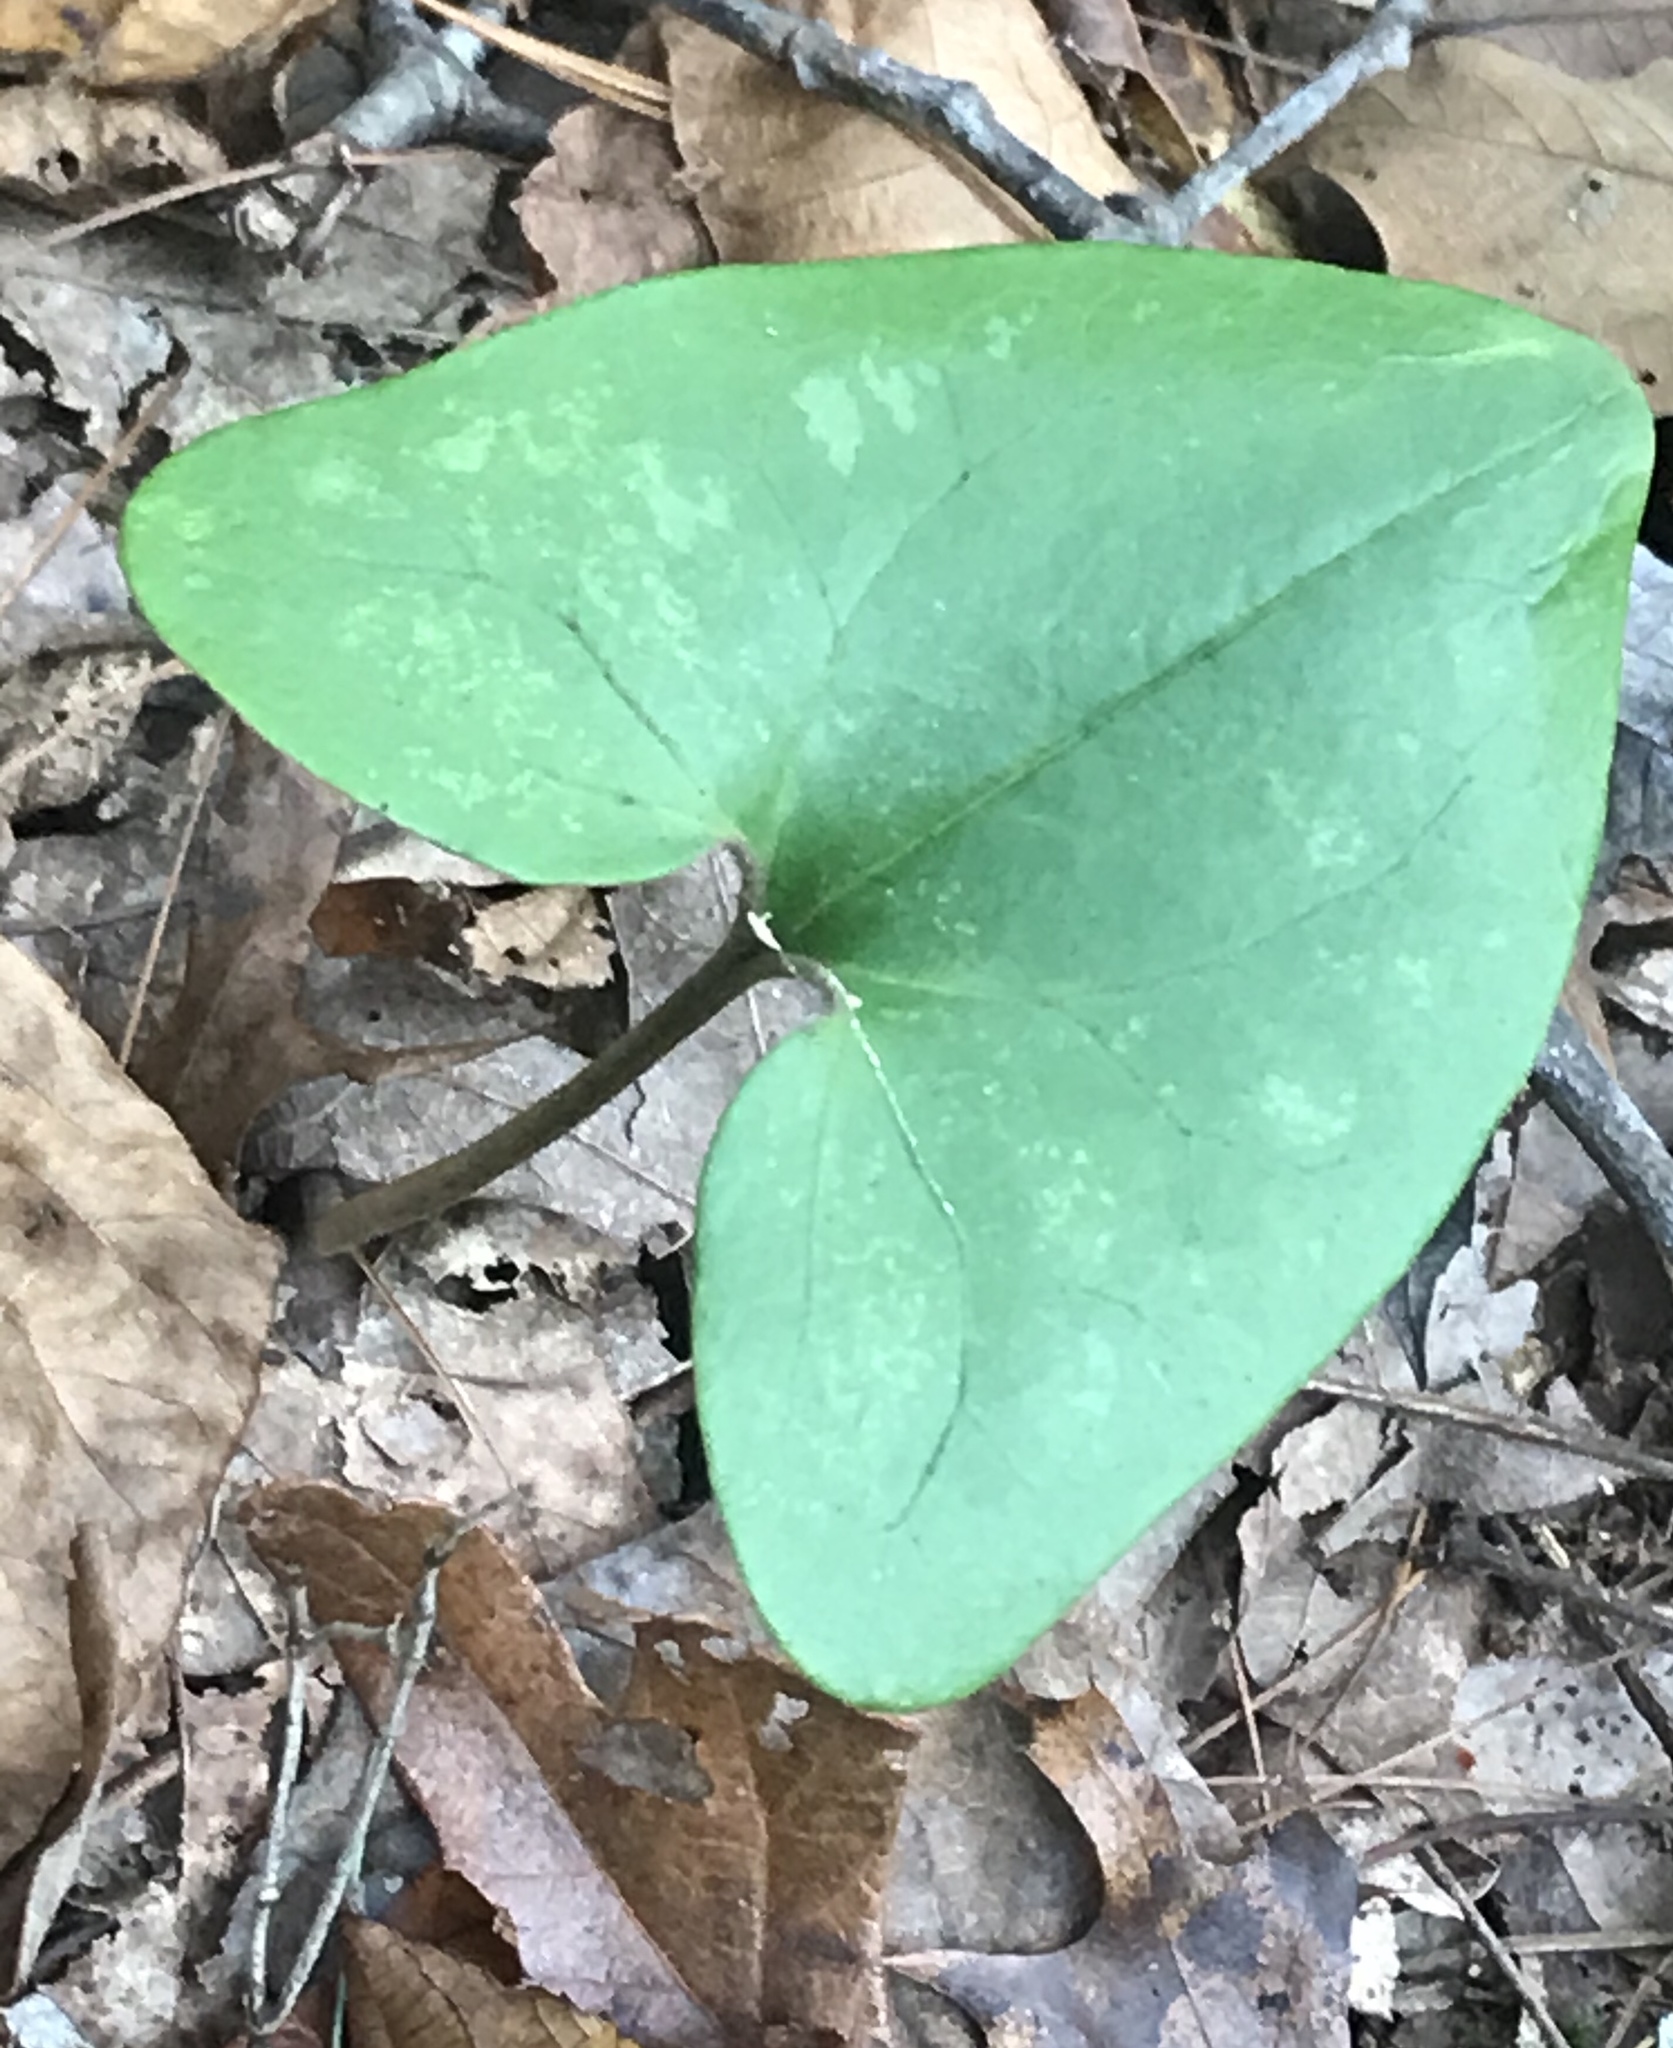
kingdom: Plantae
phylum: Tracheophyta
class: Magnoliopsida
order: Piperales
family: Aristolochiaceae
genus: Hexastylis
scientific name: Hexastylis arifolia
